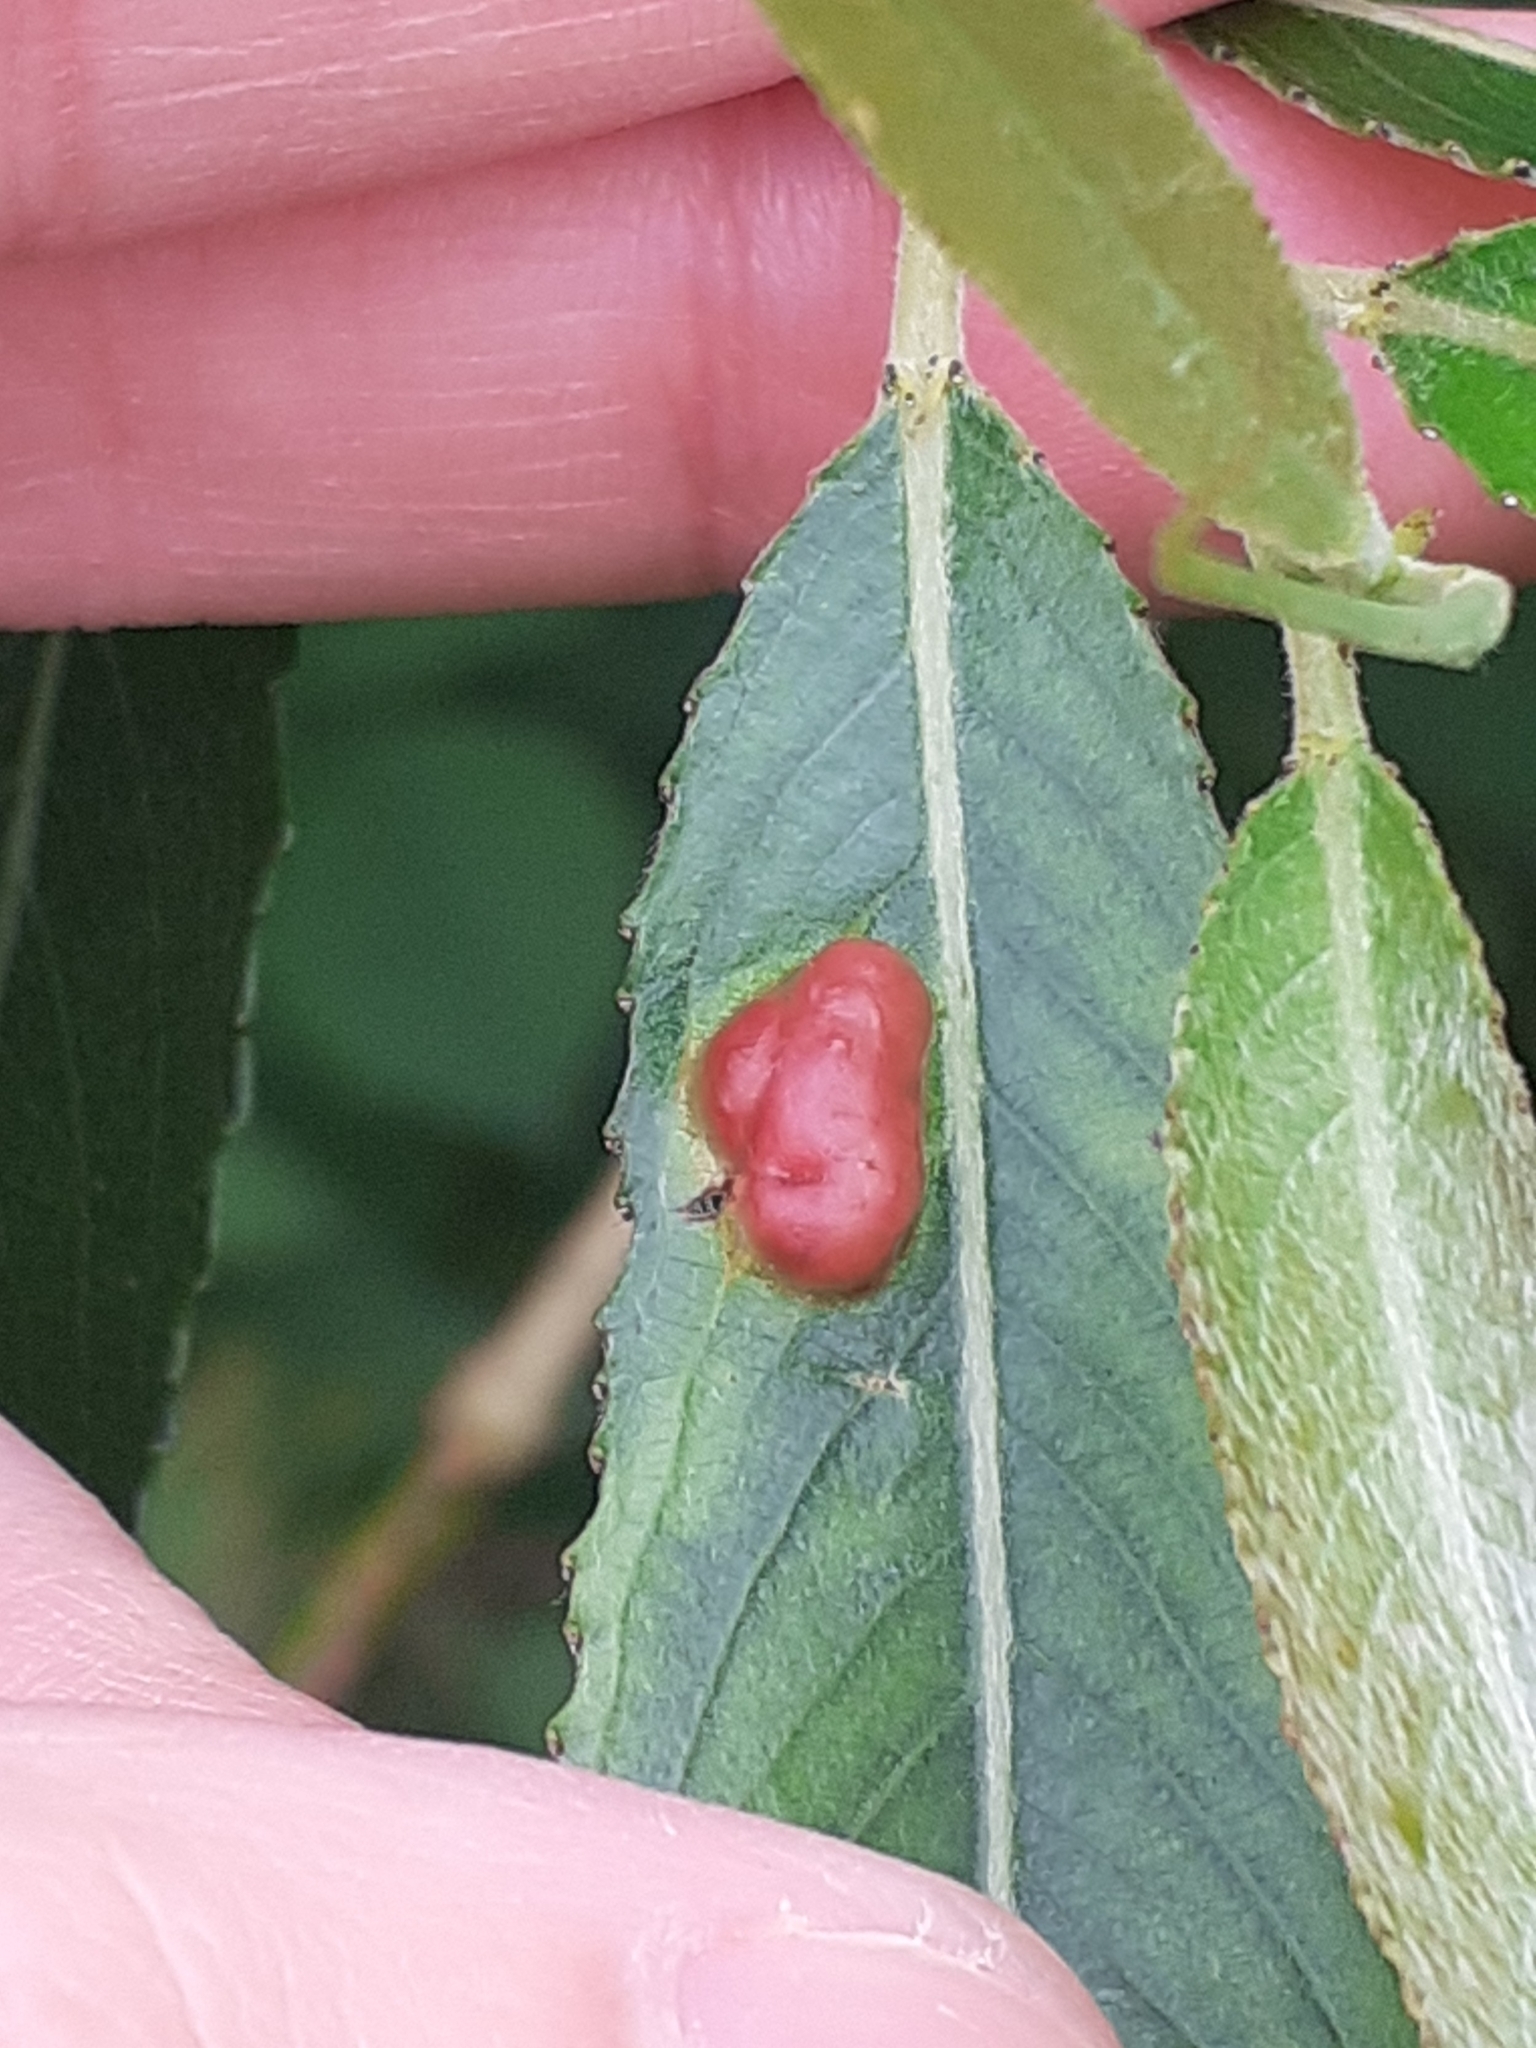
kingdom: Animalia
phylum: Arthropoda
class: Insecta
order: Hymenoptera
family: Tenthredinidae
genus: Pontania
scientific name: Pontania proxima
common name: Common sawfly
